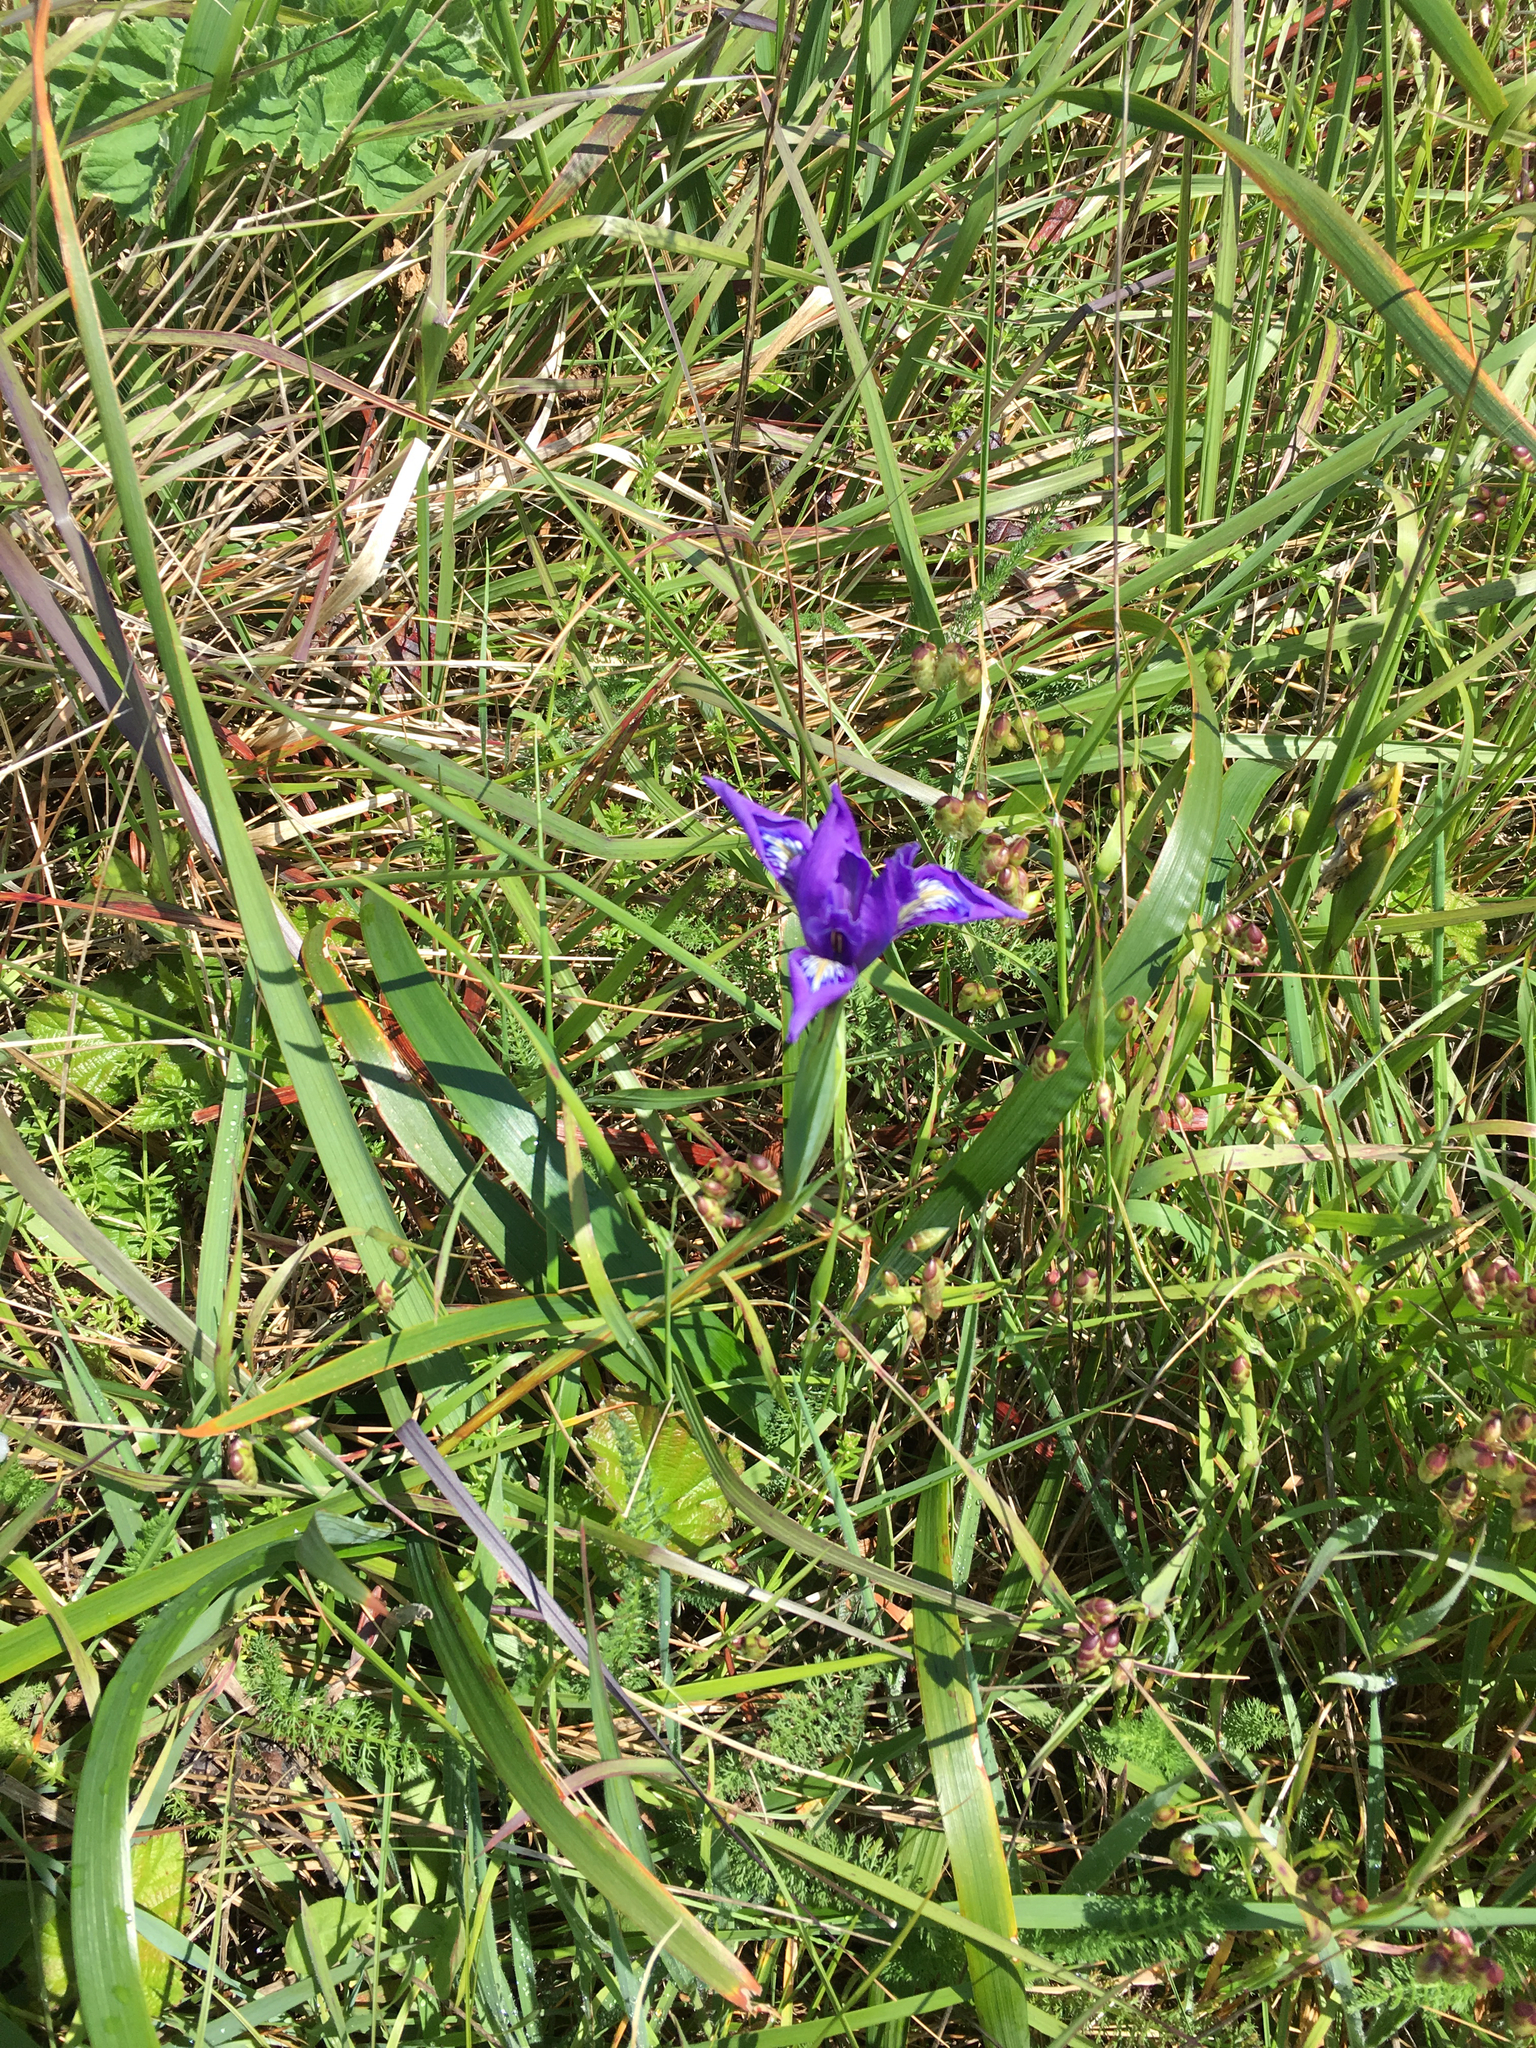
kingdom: Plantae
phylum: Tracheophyta
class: Liliopsida
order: Asparagales
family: Iridaceae
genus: Iris
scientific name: Iris douglasiana
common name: Marin iris
